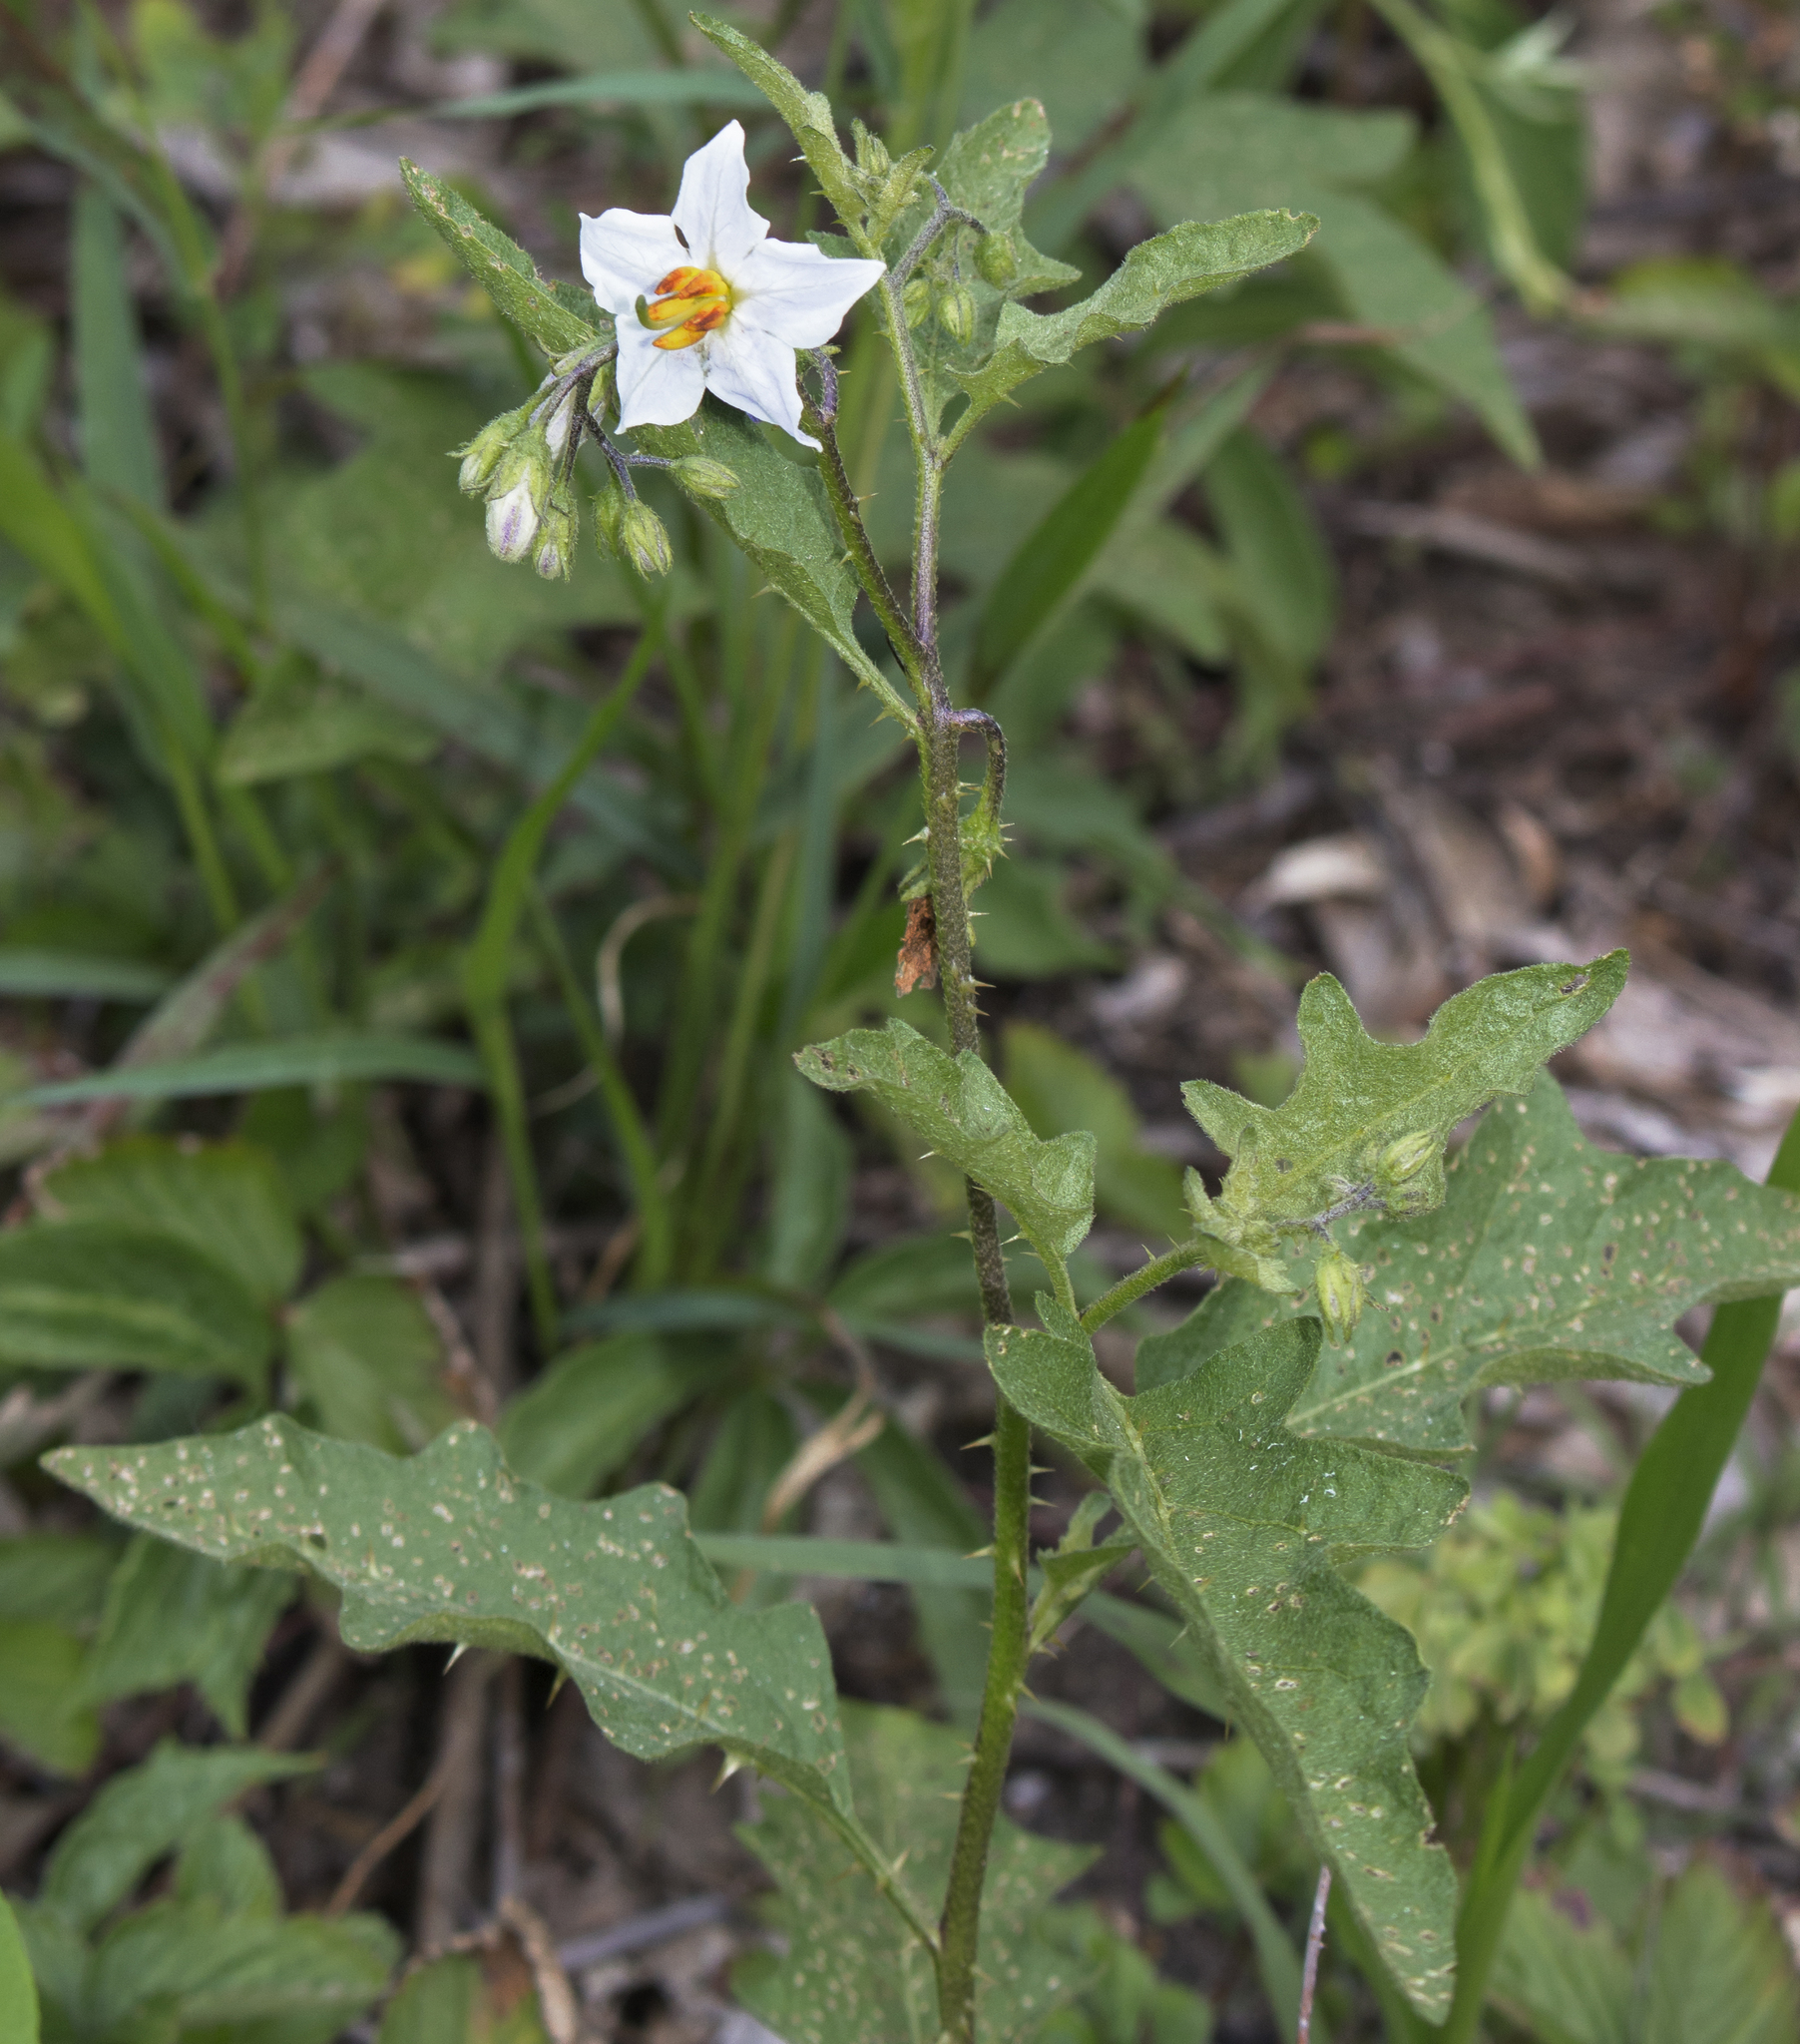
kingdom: Plantae
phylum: Tracheophyta
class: Magnoliopsida
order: Solanales
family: Solanaceae
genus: Solanum
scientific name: Solanum carolinense
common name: Horse-nettle
